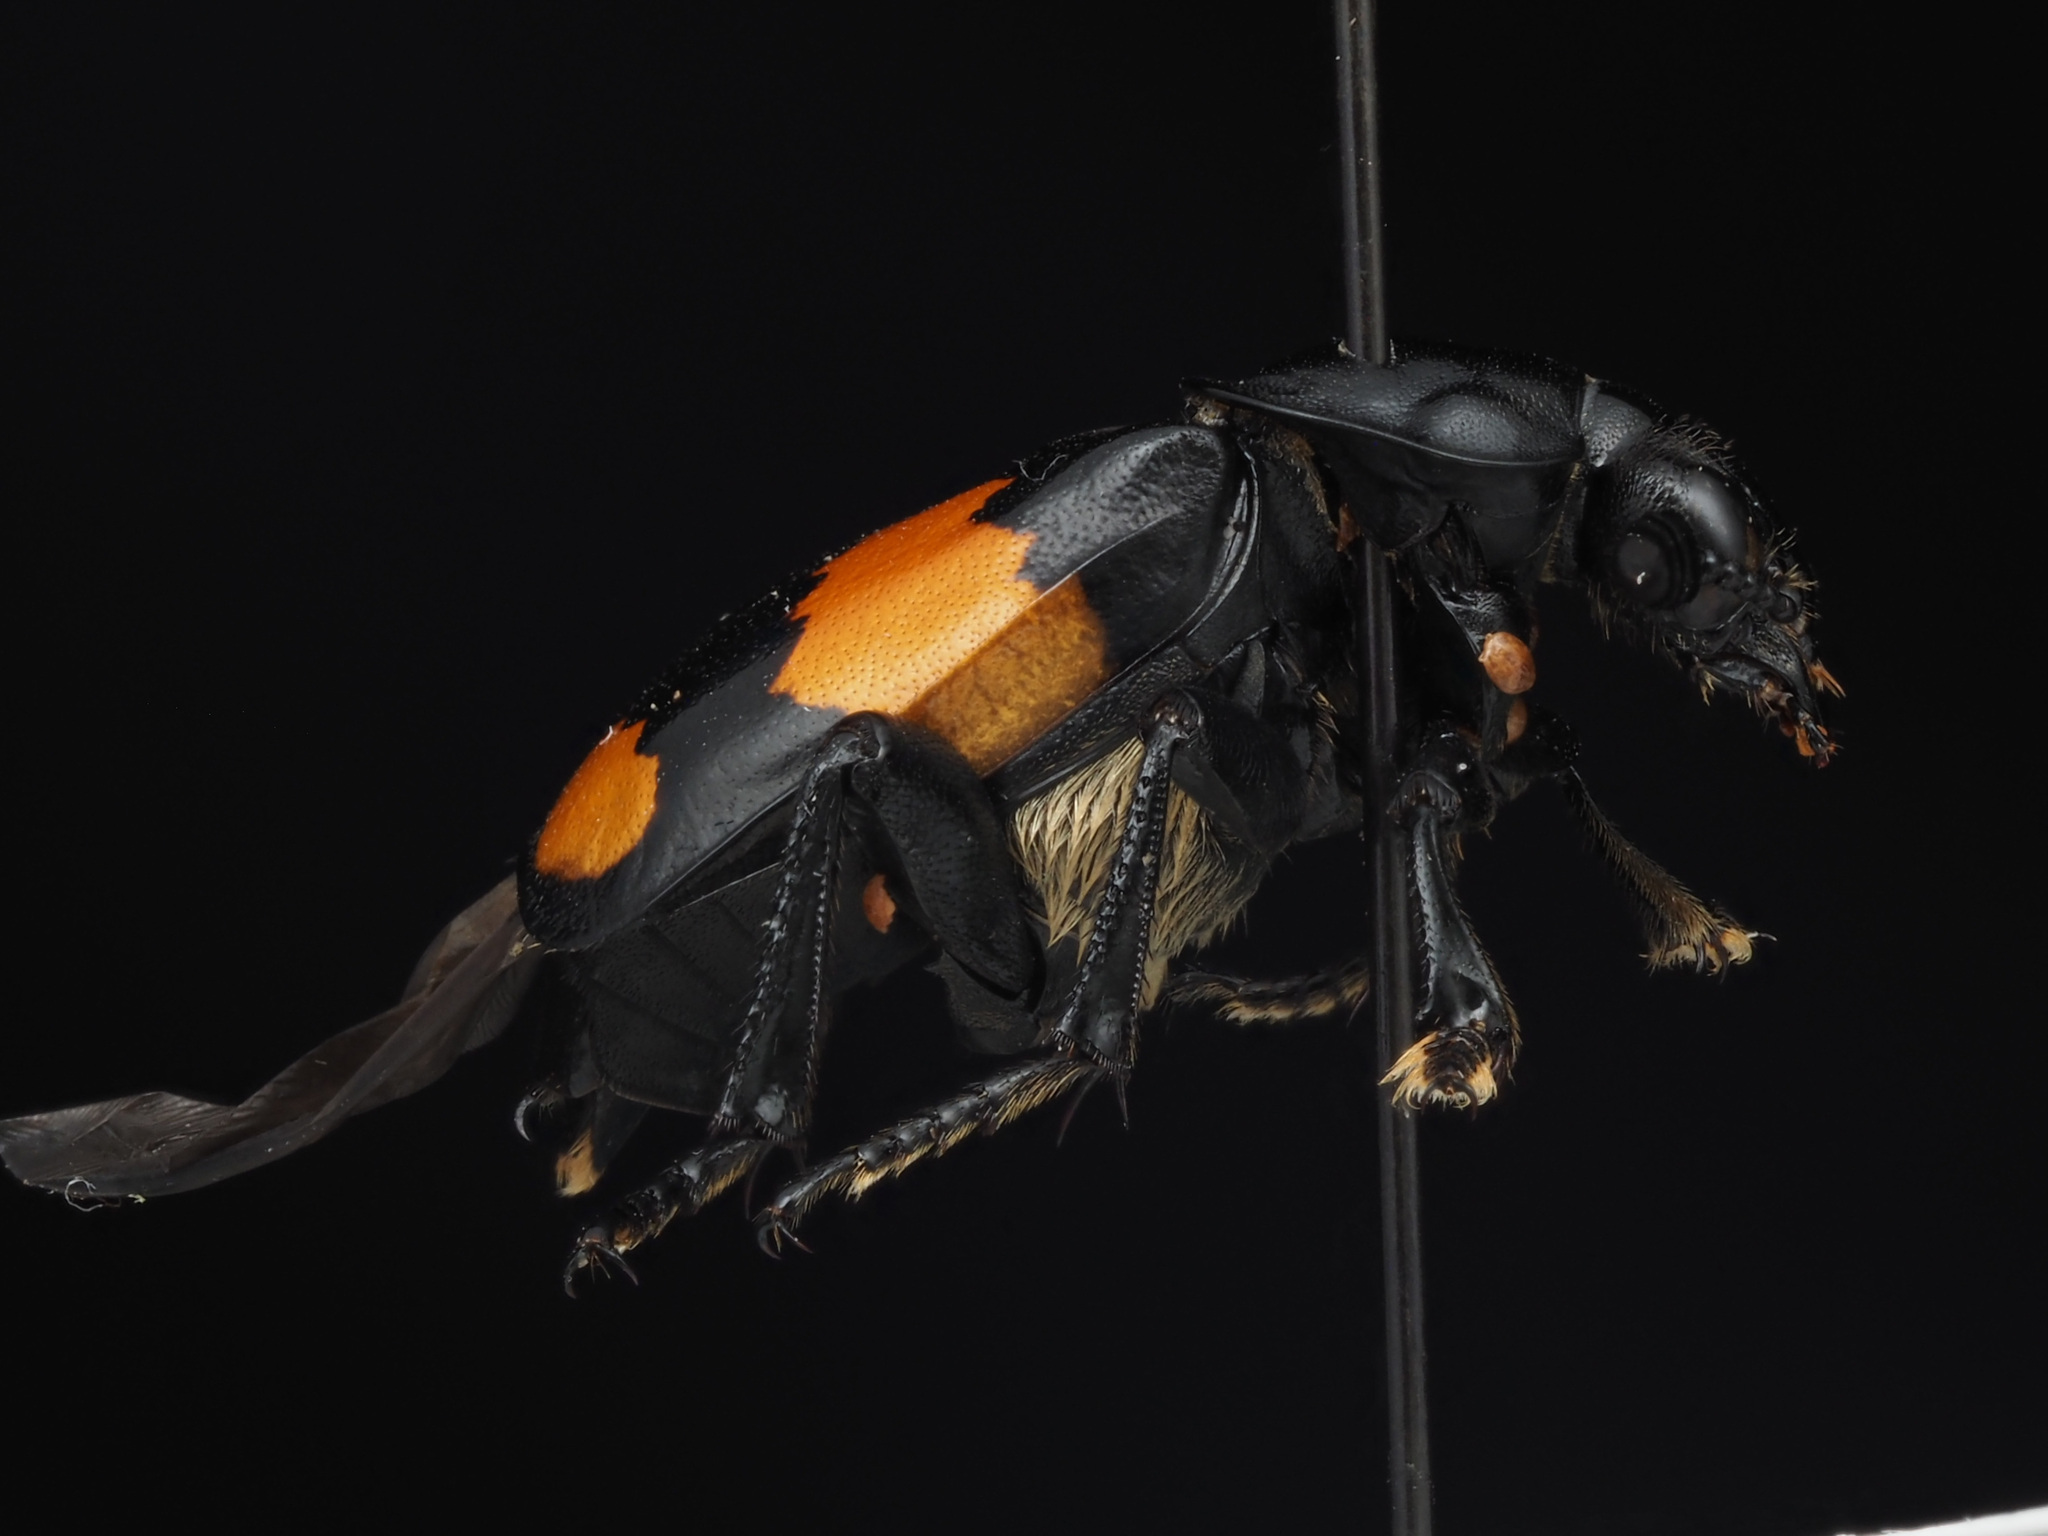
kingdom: Animalia
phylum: Arthropoda
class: Insecta
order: Coleoptera
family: Staphylinidae
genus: Nicrophorus
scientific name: Nicrophorus defodiens
